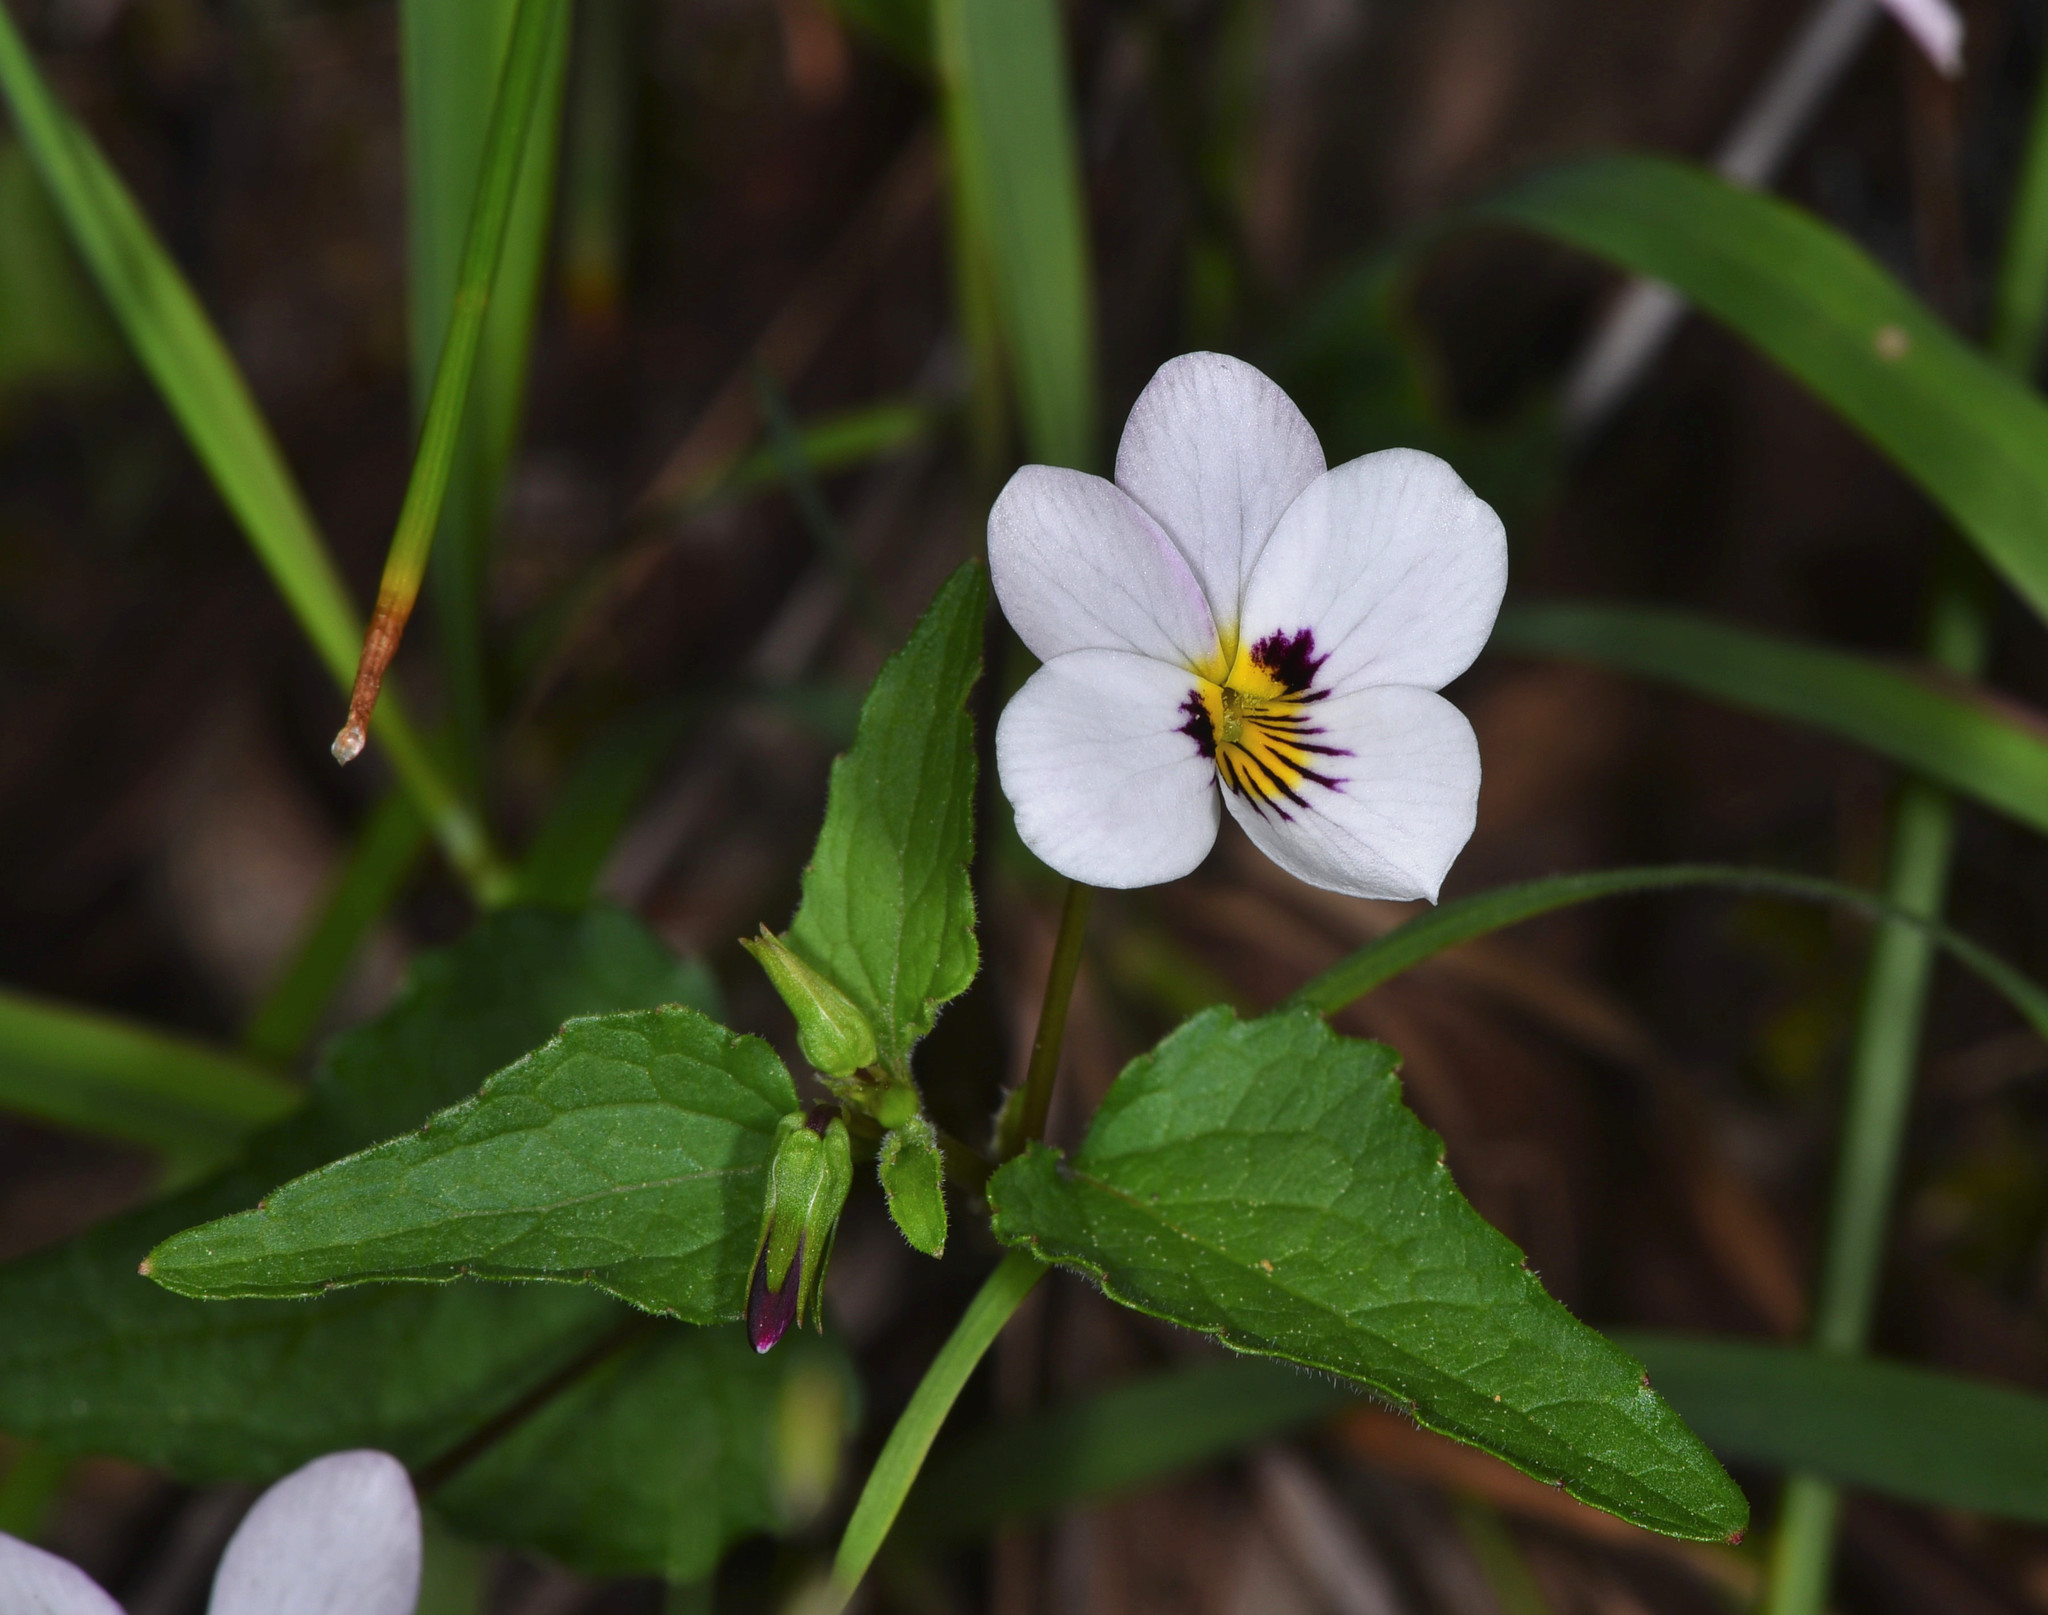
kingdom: Plantae
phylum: Tracheophyta
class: Magnoliopsida
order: Malpighiales
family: Violaceae
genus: Viola
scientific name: Viola ocellata
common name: Western heart's ease
